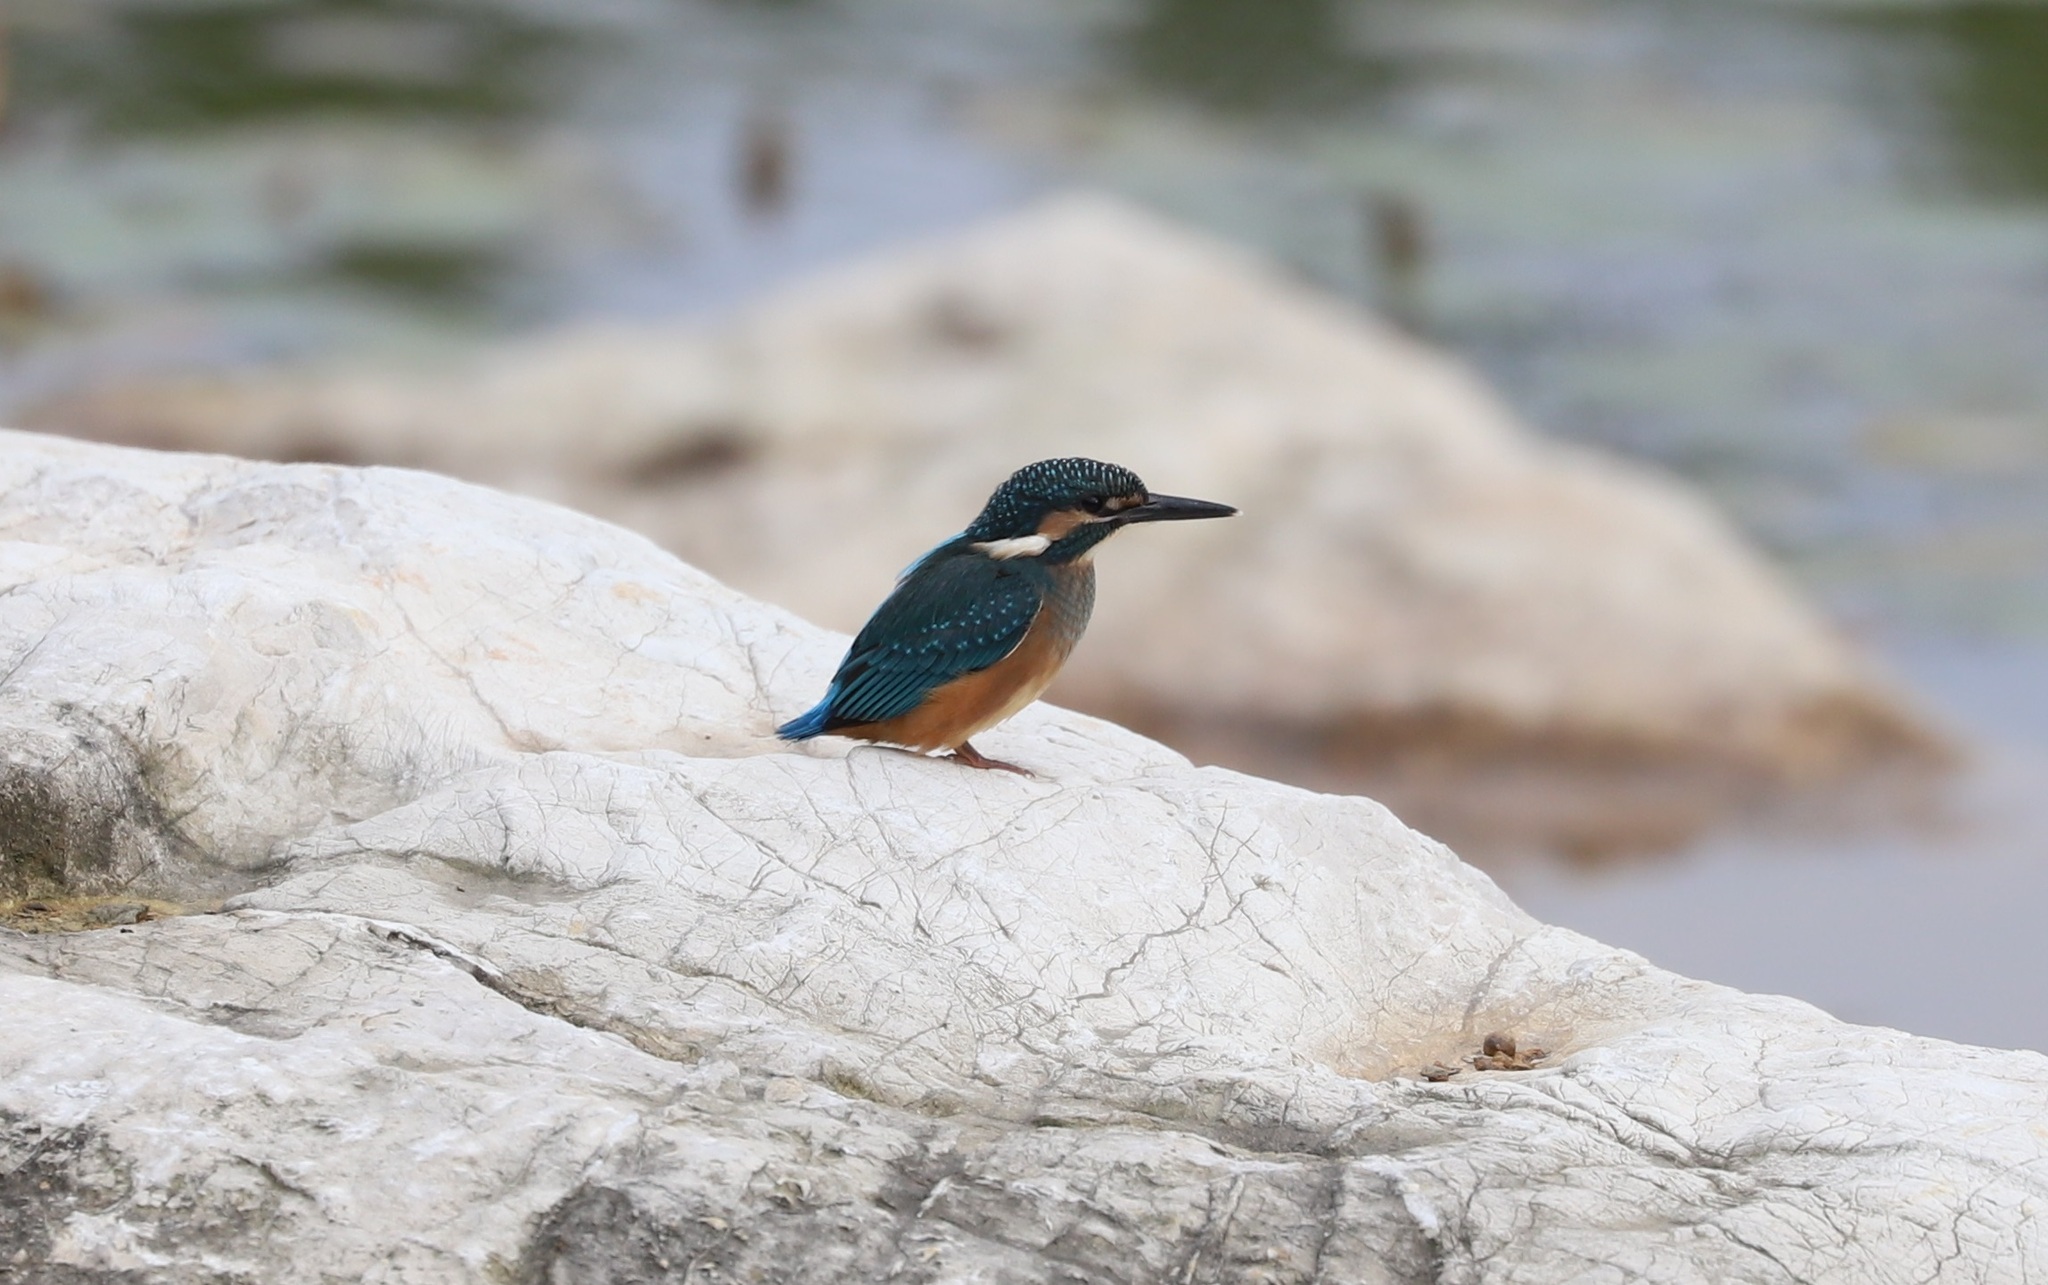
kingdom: Animalia
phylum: Chordata
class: Aves
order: Coraciiformes
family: Alcedinidae
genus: Alcedo
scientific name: Alcedo atthis
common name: Common kingfisher
